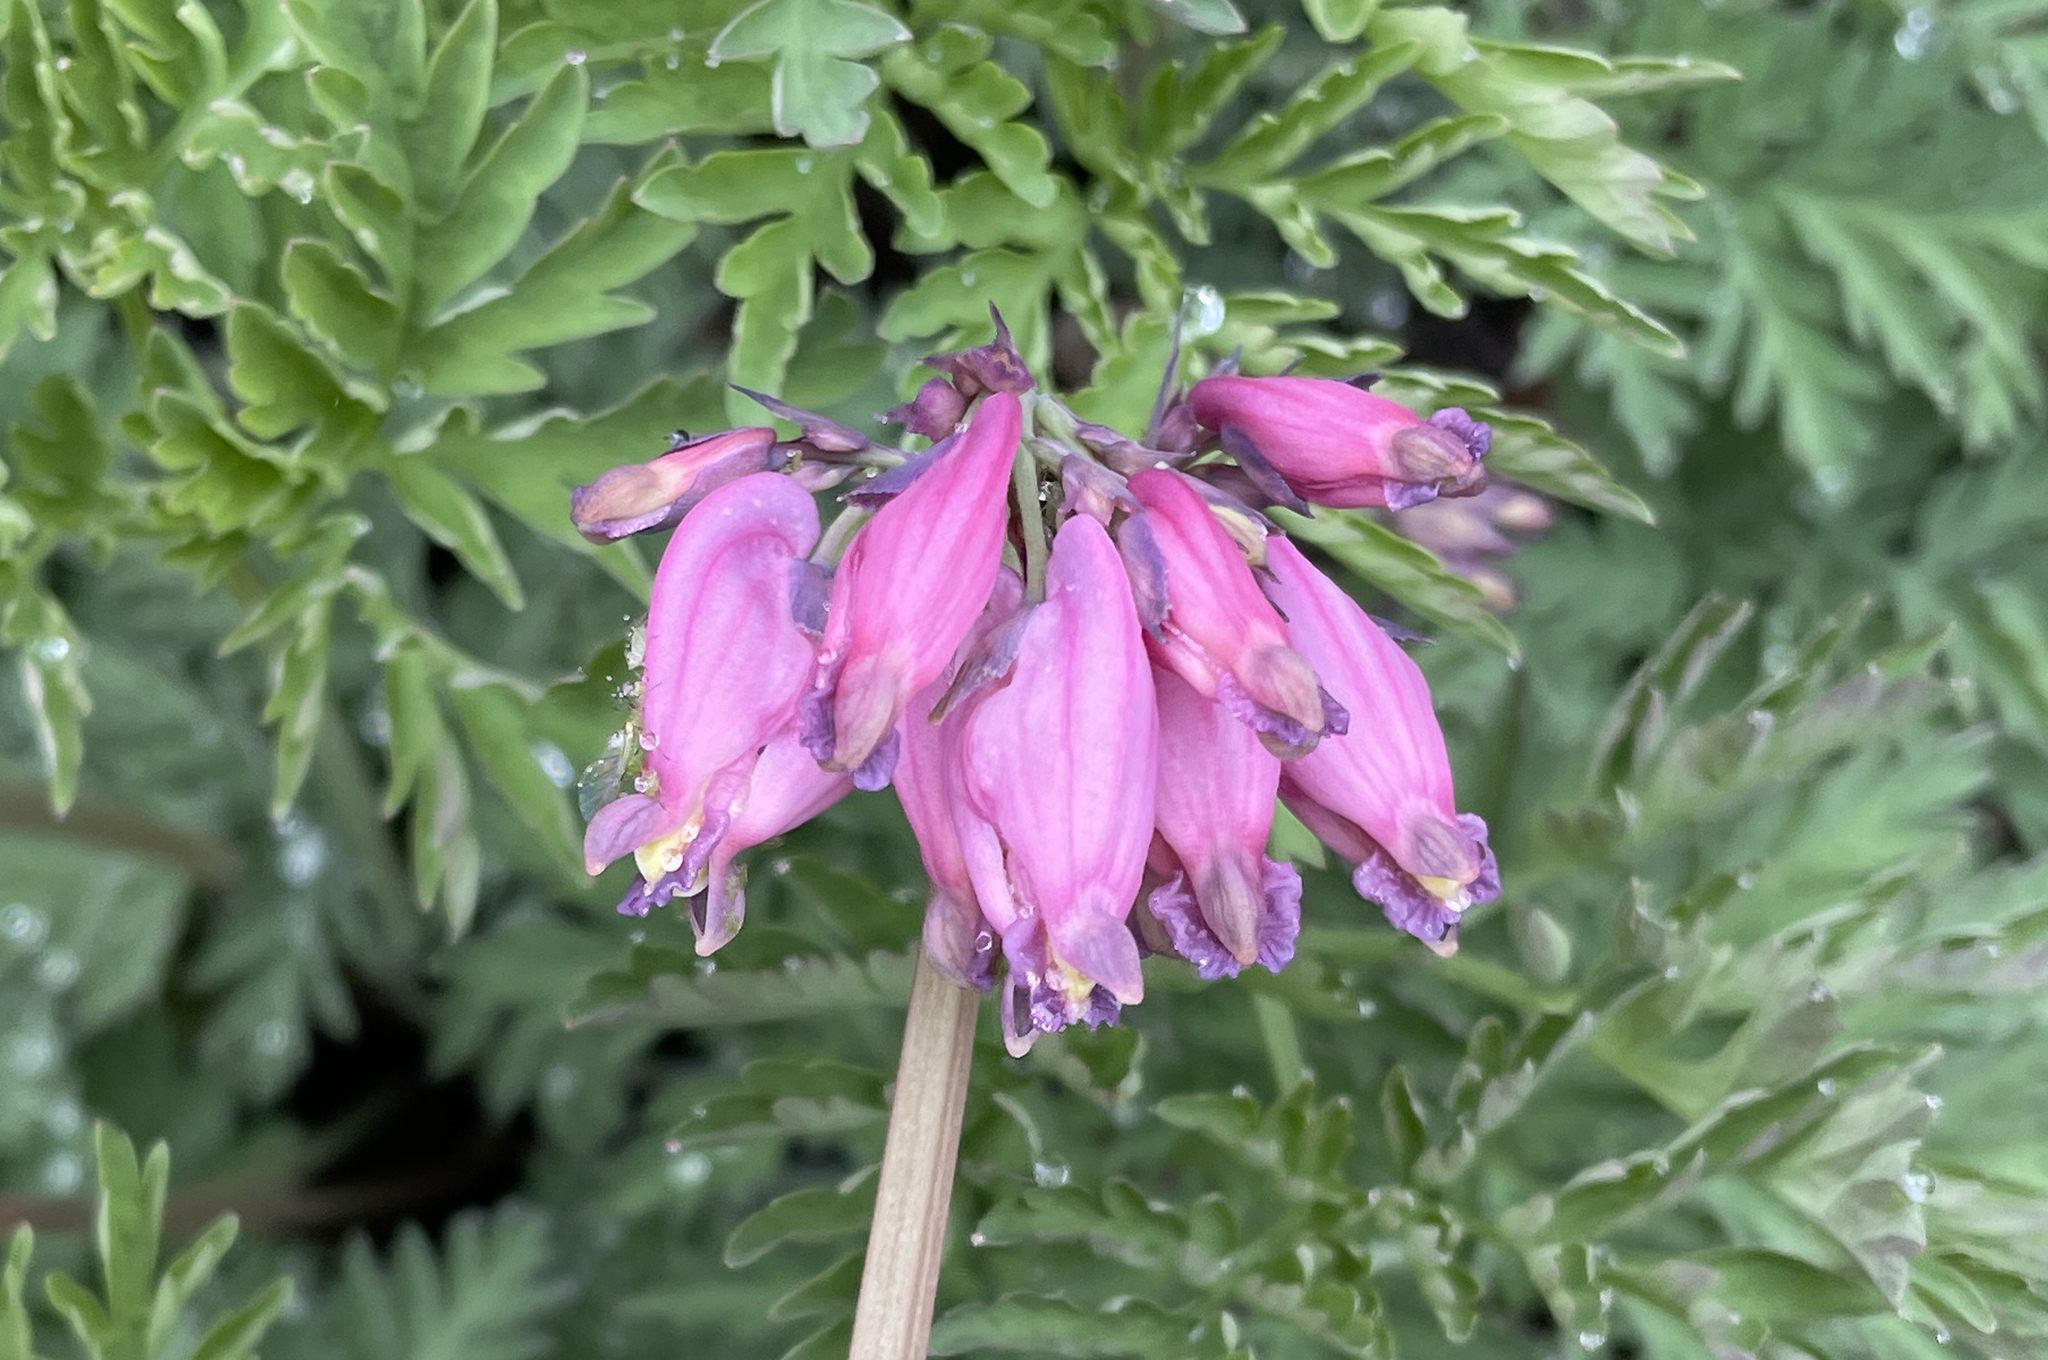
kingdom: Plantae
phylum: Tracheophyta
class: Magnoliopsida
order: Ranunculales
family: Papaveraceae
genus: Dicentra
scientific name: Dicentra formosa
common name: Bleeding-heart
